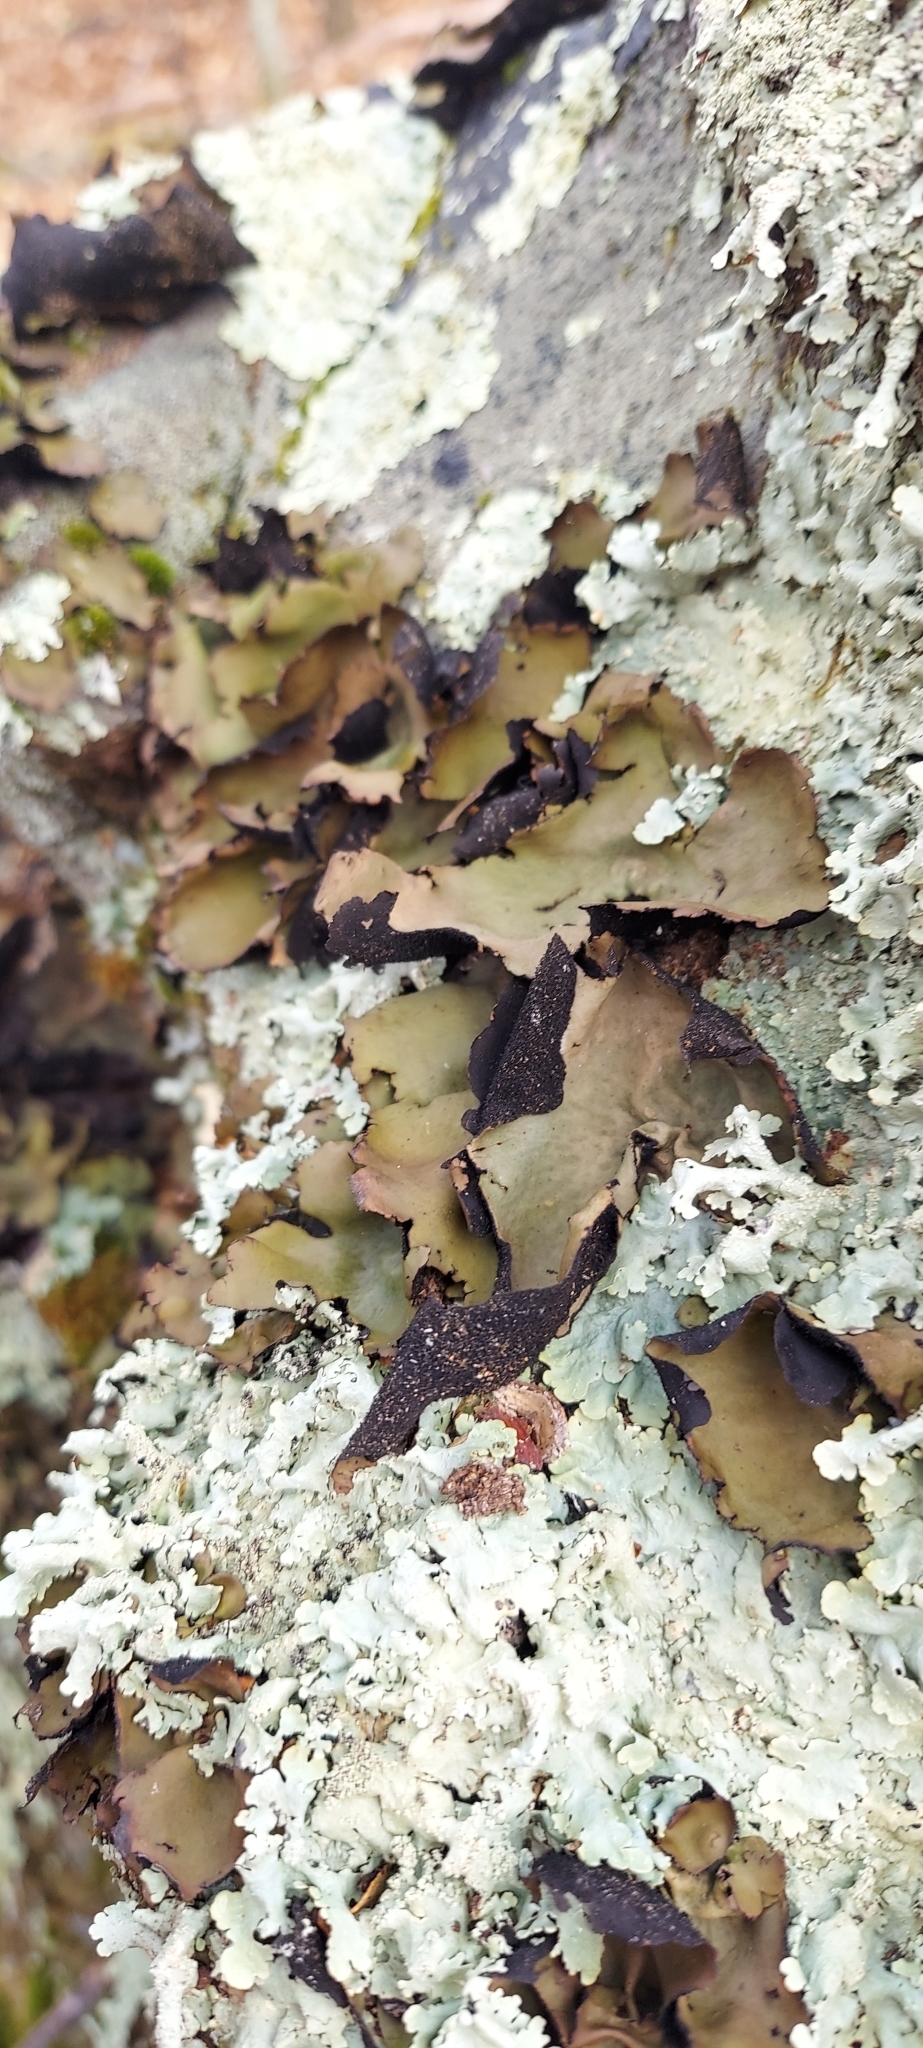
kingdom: Fungi
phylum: Ascomycota
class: Lecanoromycetes
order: Umbilicariales
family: Umbilicariaceae
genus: Umbilicaria
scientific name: Umbilicaria mammulata
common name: Smooth rock tripe
